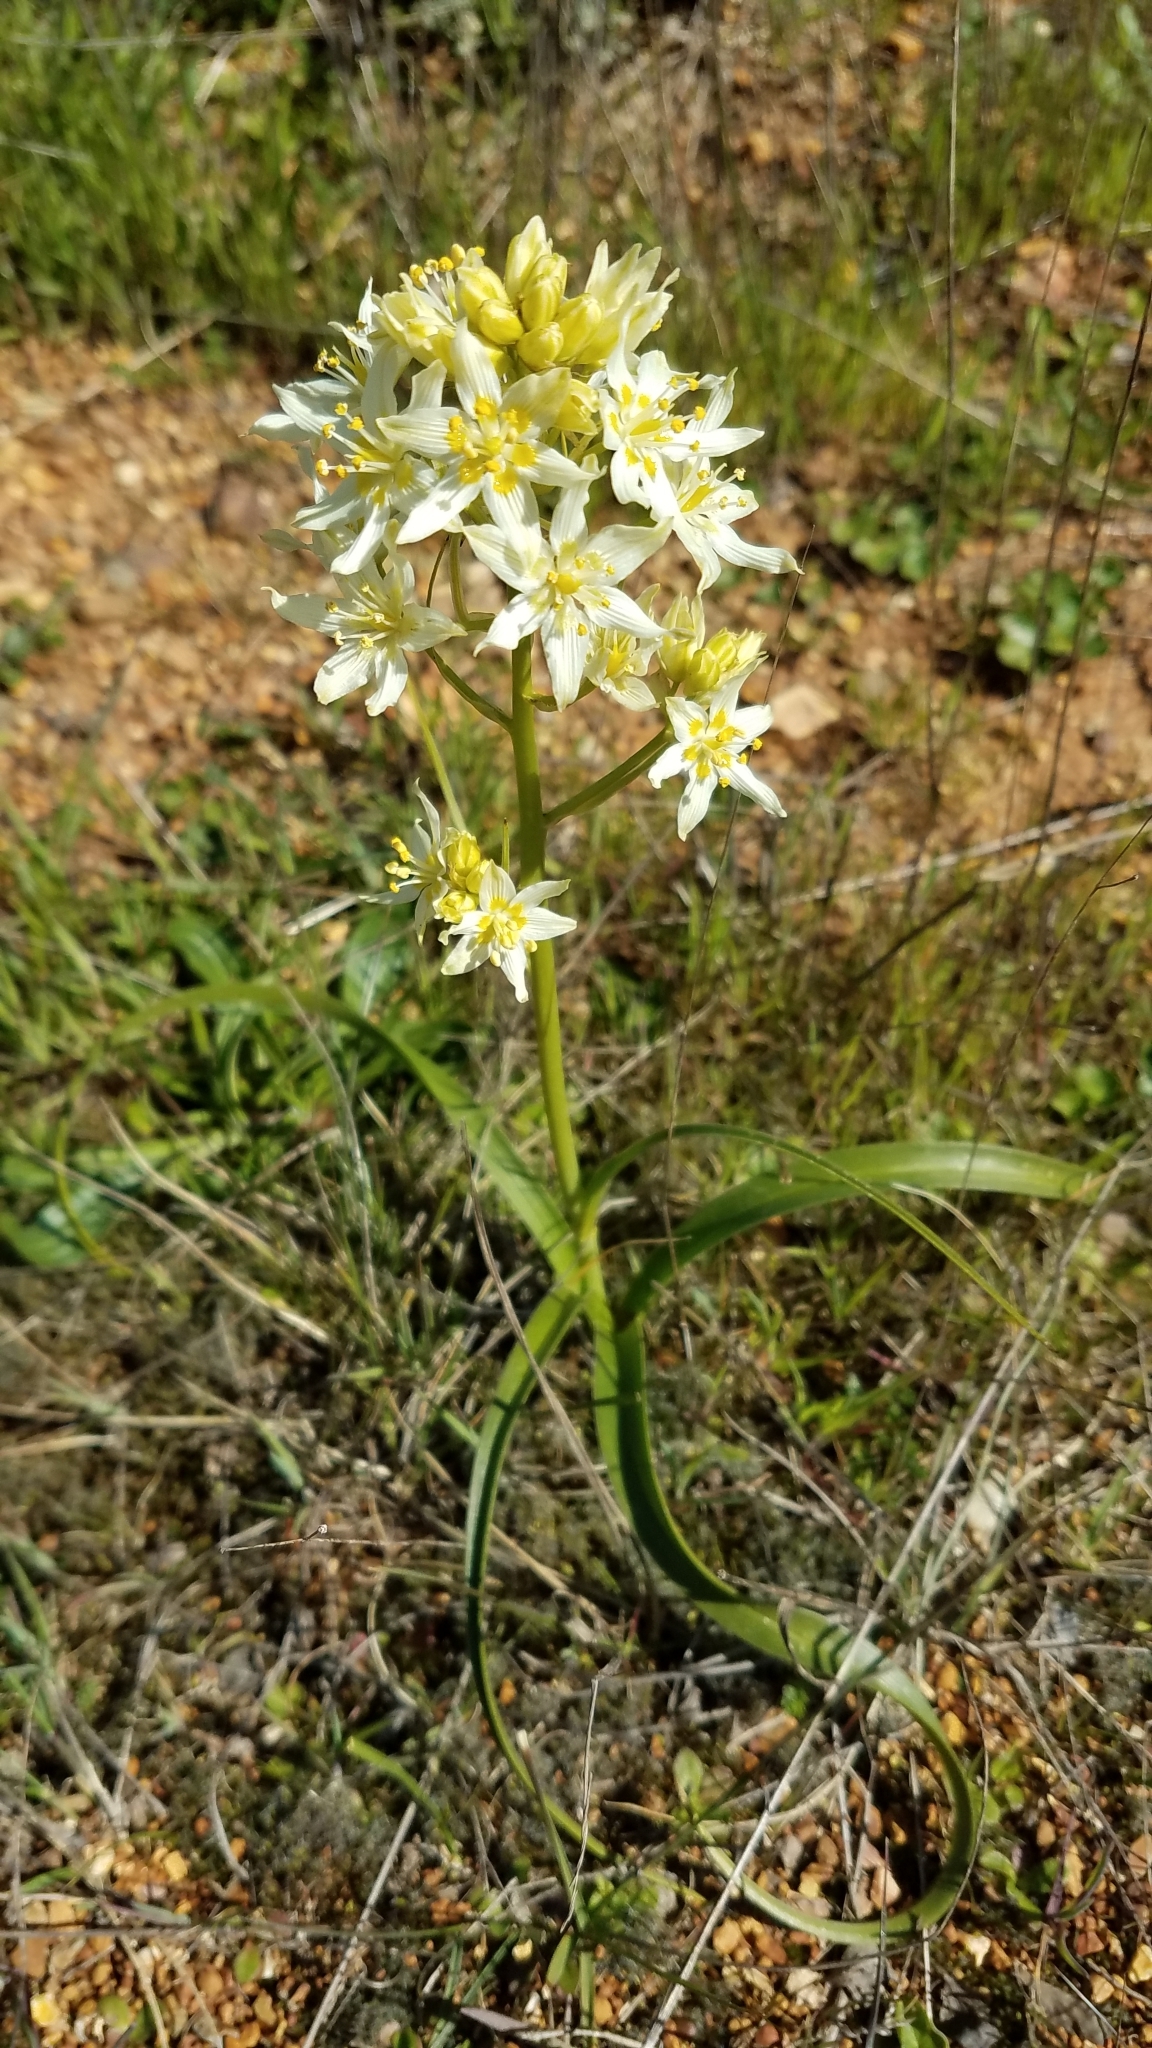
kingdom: Plantae
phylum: Tracheophyta
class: Liliopsida
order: Liliales
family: Melanthiaceae
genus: Toxicoscordion
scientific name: Toxicoscordion fremontii
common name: Fremont's death camas
